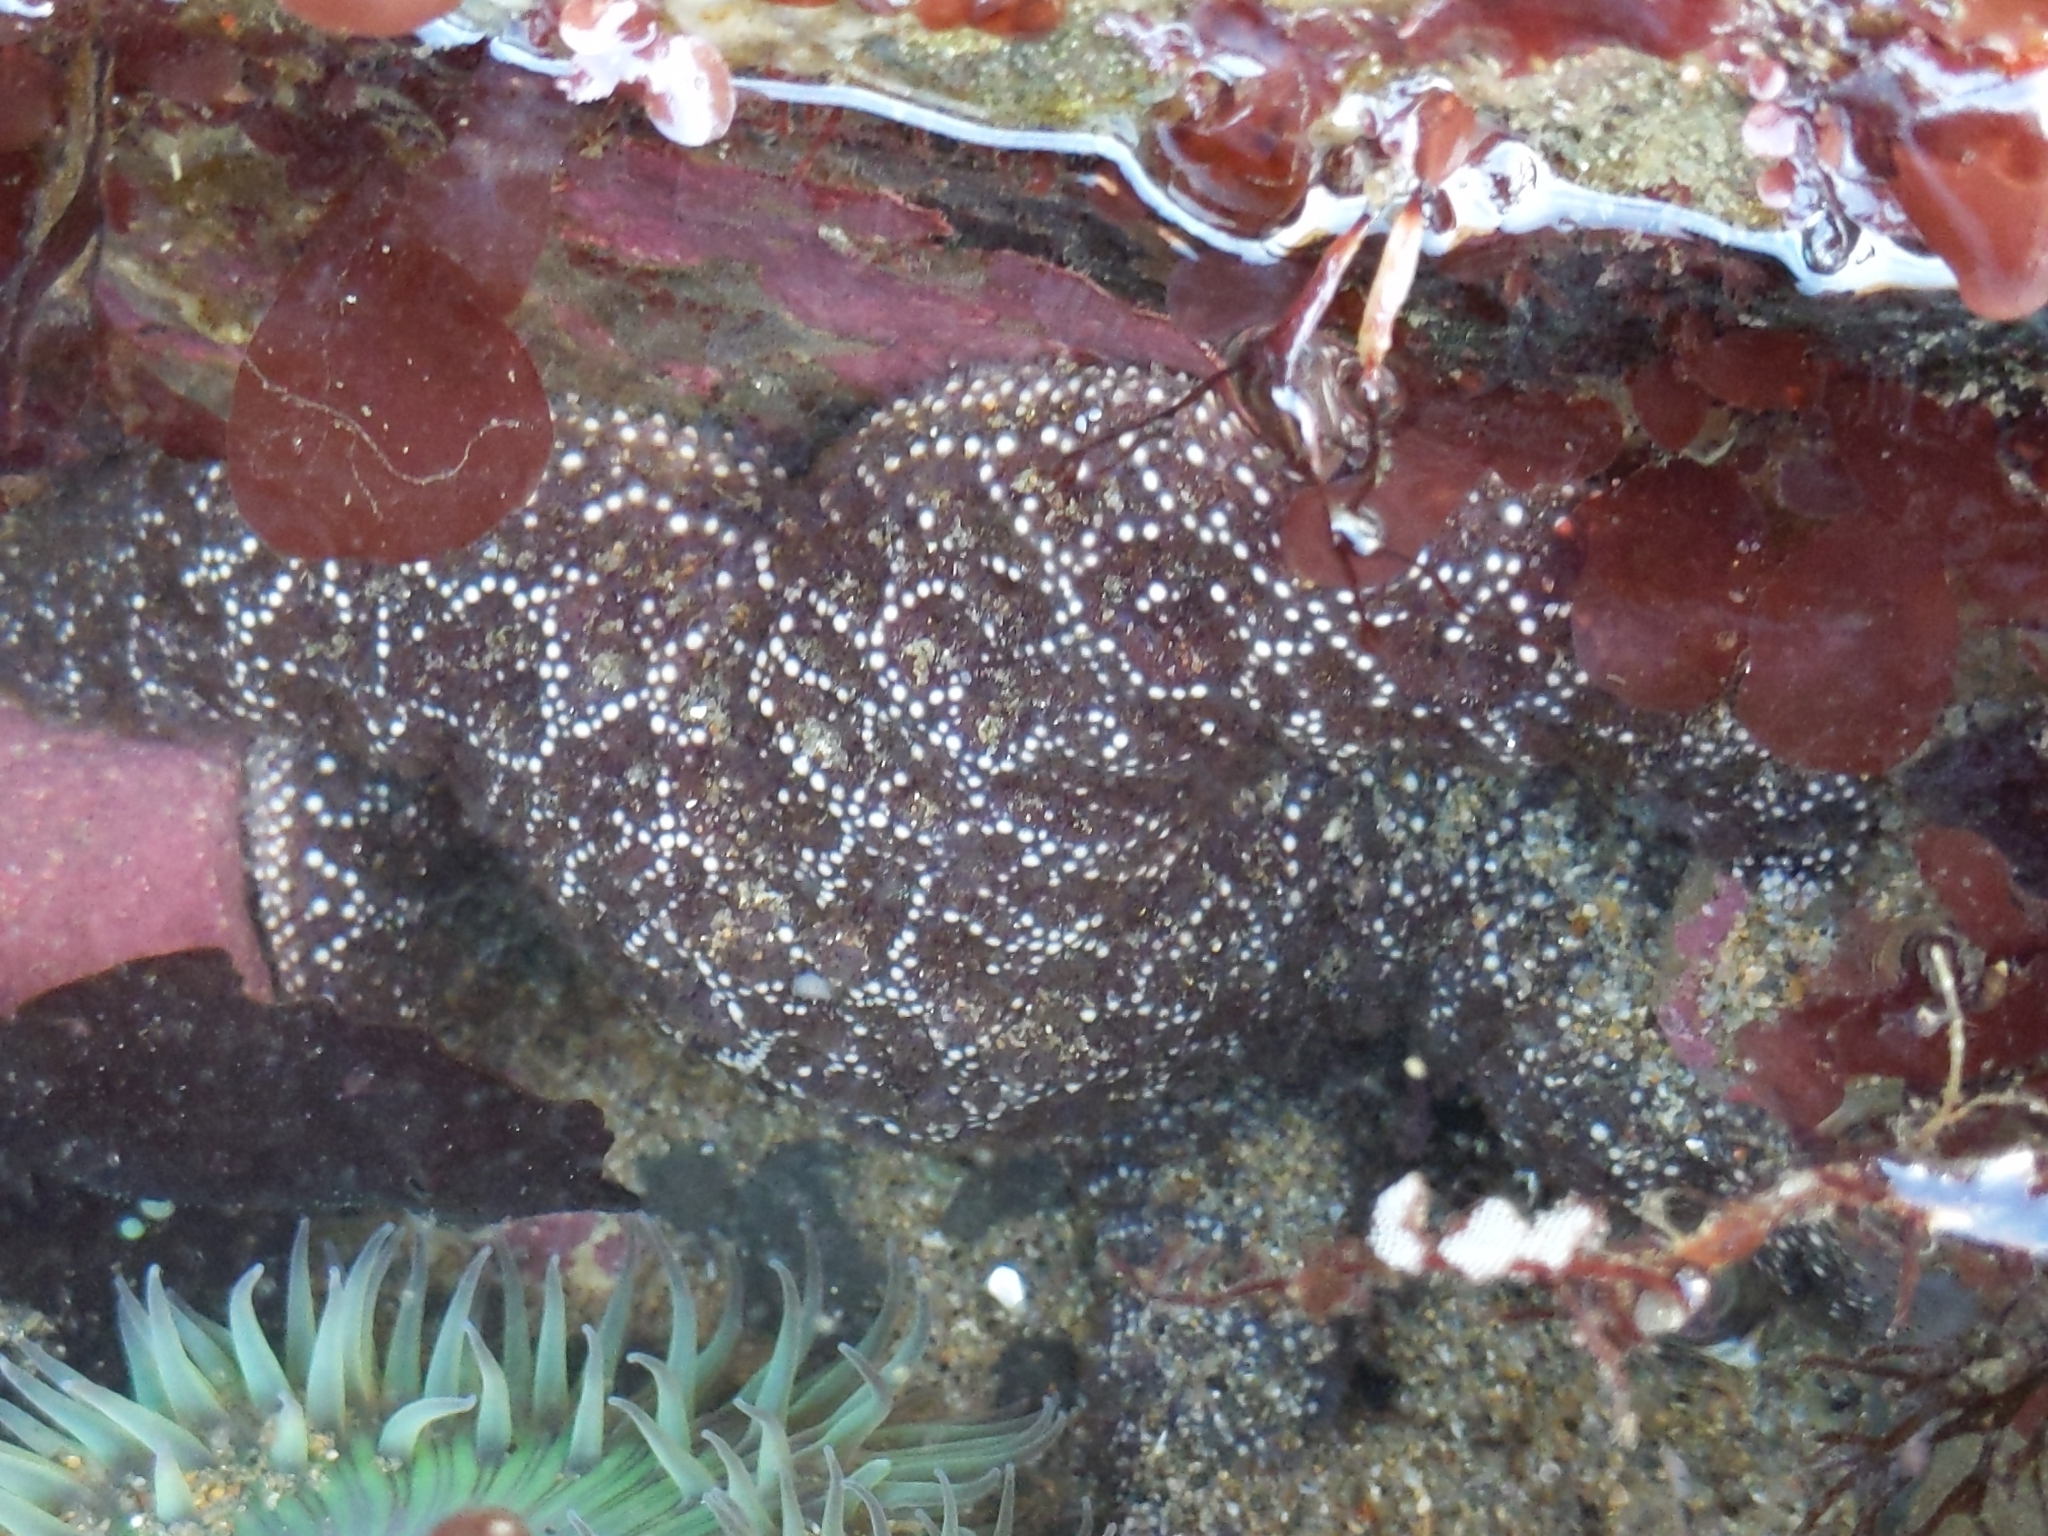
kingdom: Animalia
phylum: Echinodermata
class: Asteroidea
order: Forcipulatida
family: Asteriidae
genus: Pisaster
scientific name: Pisaster ochraceus
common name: Ochre stars
